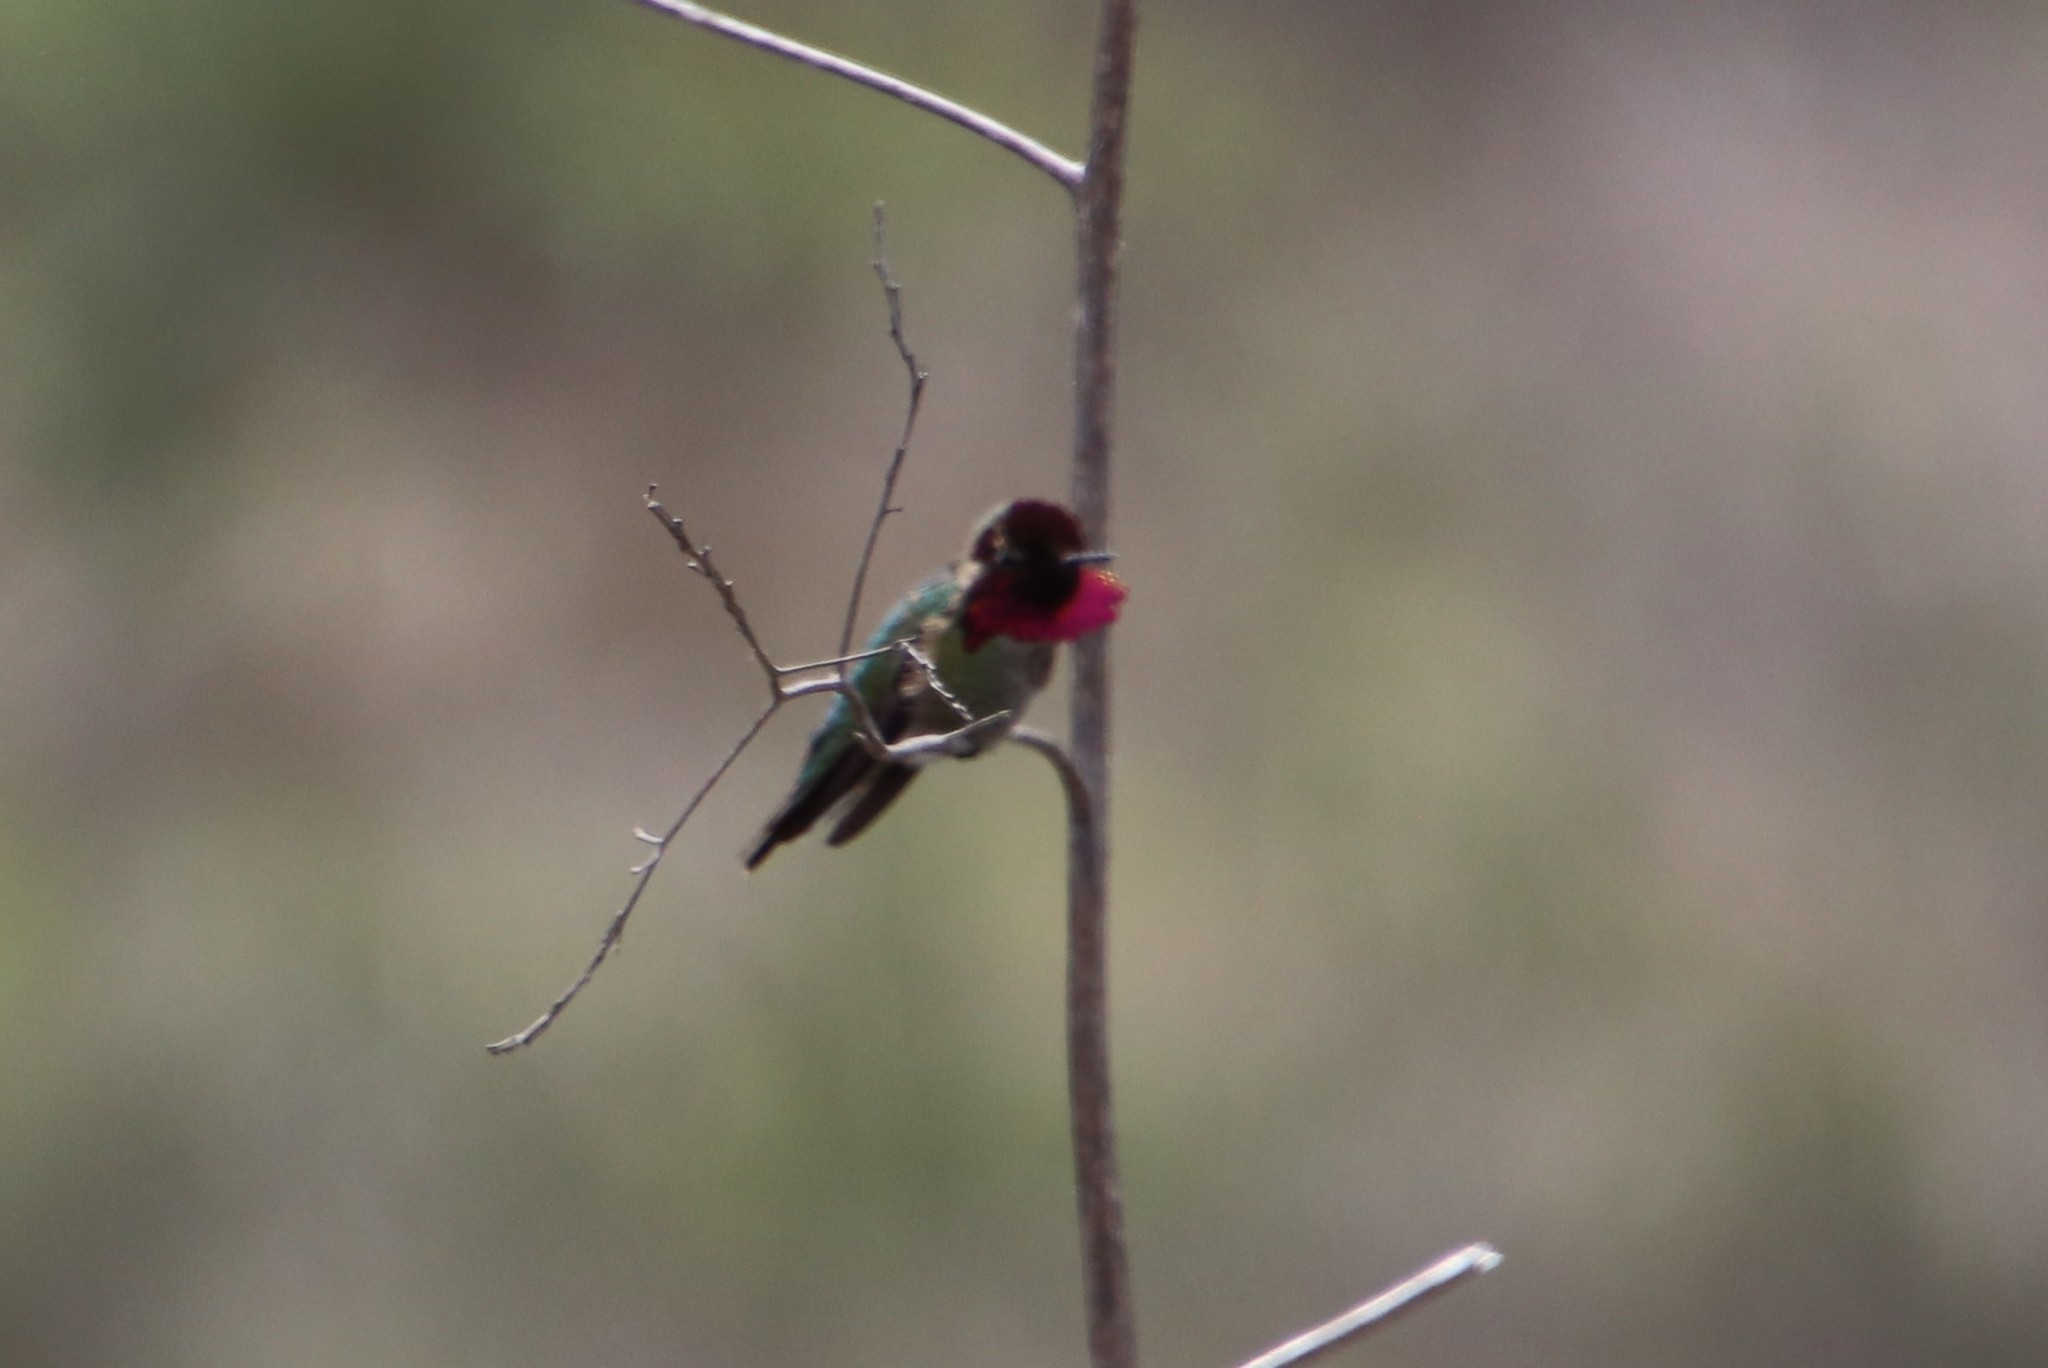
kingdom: Animalia
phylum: Chordata
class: Aves
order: Apodiformes
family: Trochilidae
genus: Calypte
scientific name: Calypte anna
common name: Anna's hummingbird
